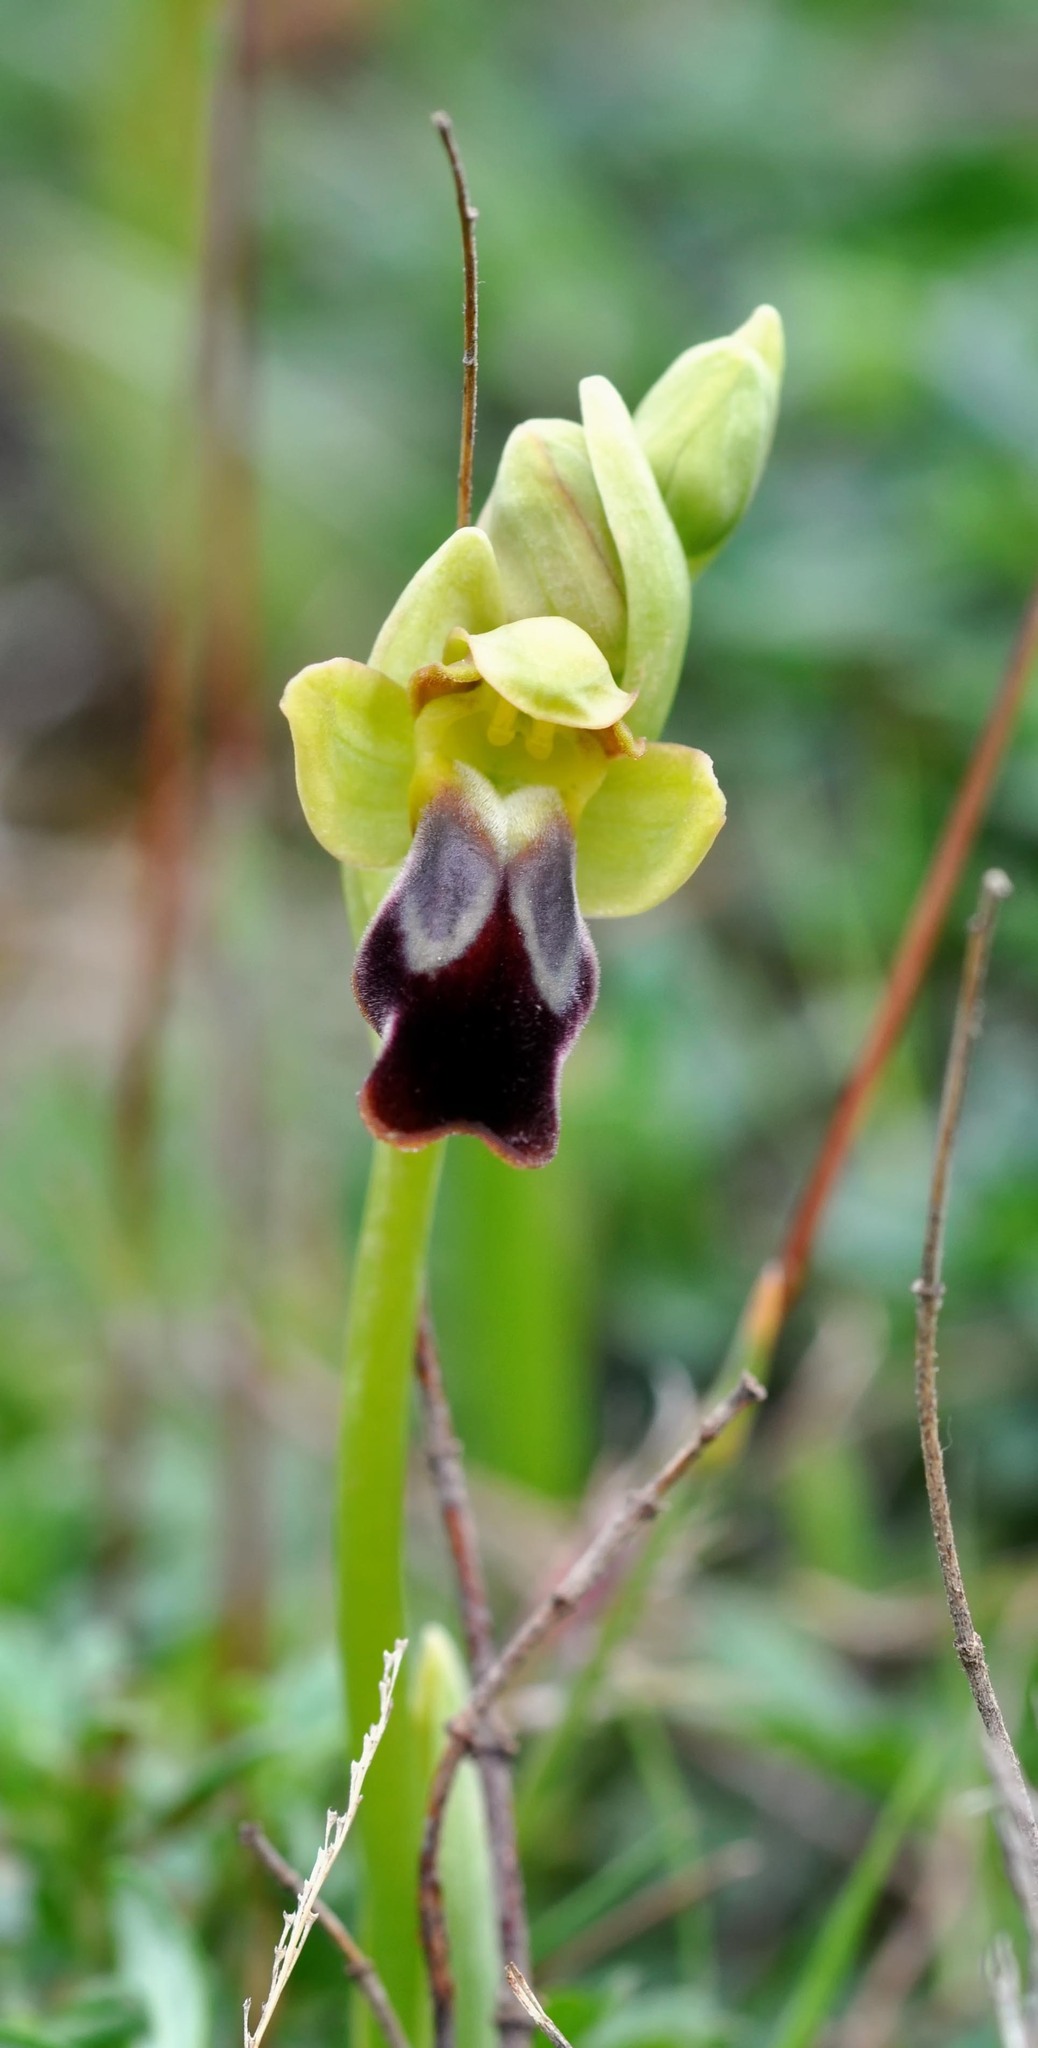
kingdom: Plantae
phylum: Tracheophyta
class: Liliopsida
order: Asparagales
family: Orchidaceae
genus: Ophrys
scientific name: Ophrys fusca
